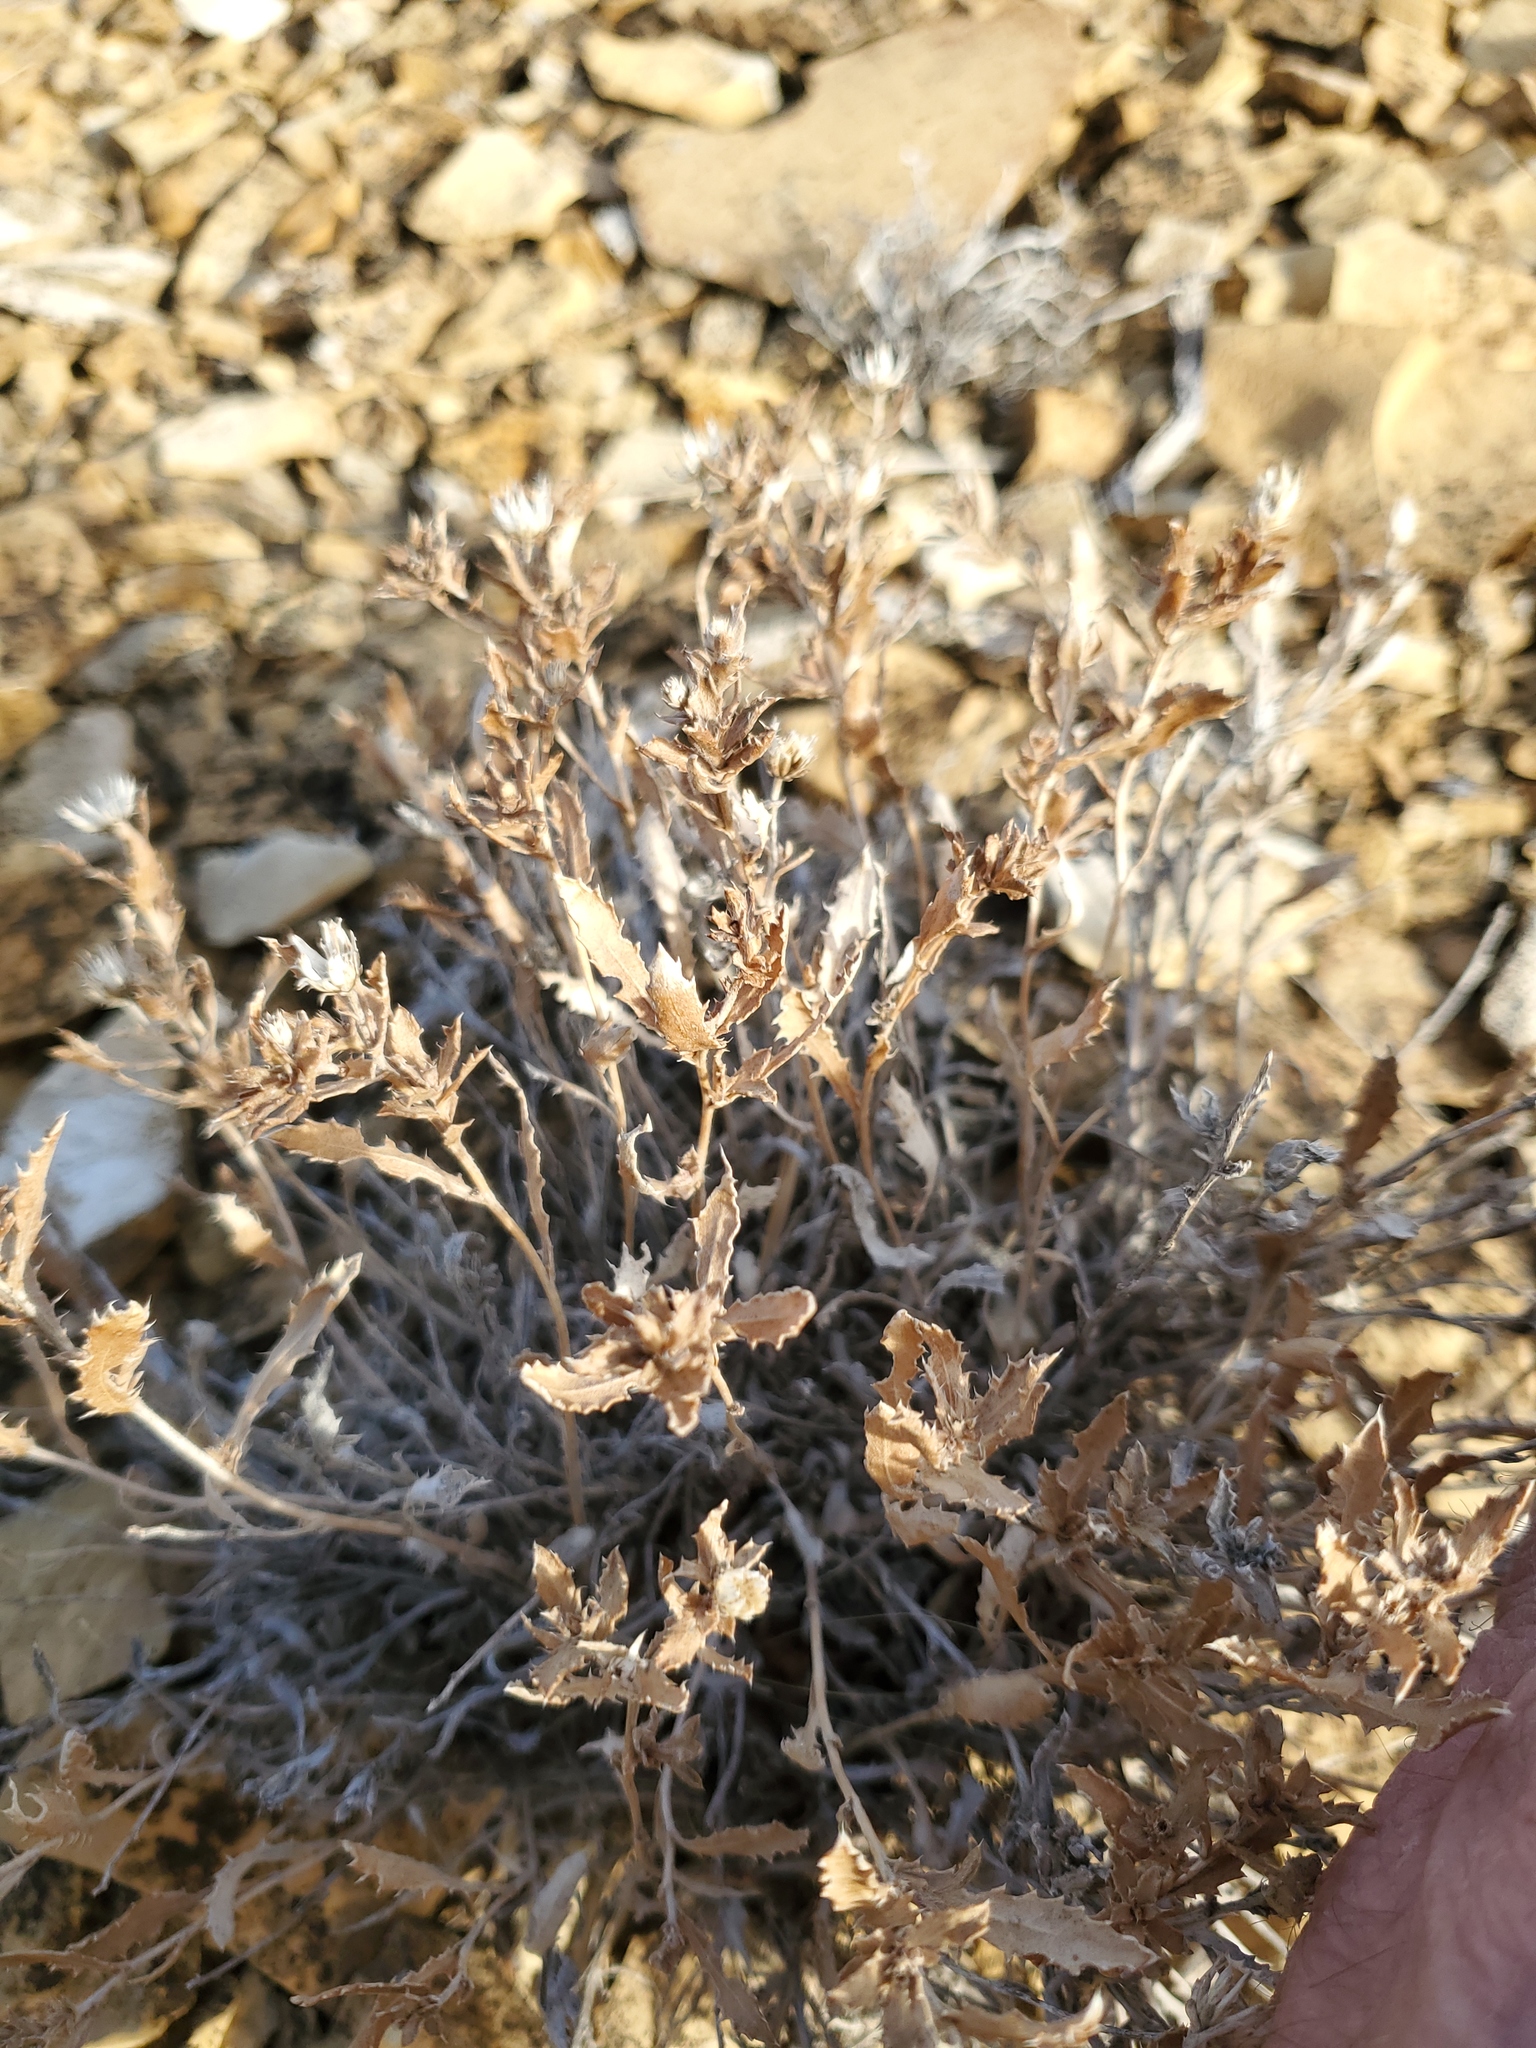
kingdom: Plantae
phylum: Tracheophyta
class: Magnoliopsida
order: Asterales
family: Asteraceae
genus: Xanthisma
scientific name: Xanthisma grindelioides
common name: Goldenweed
